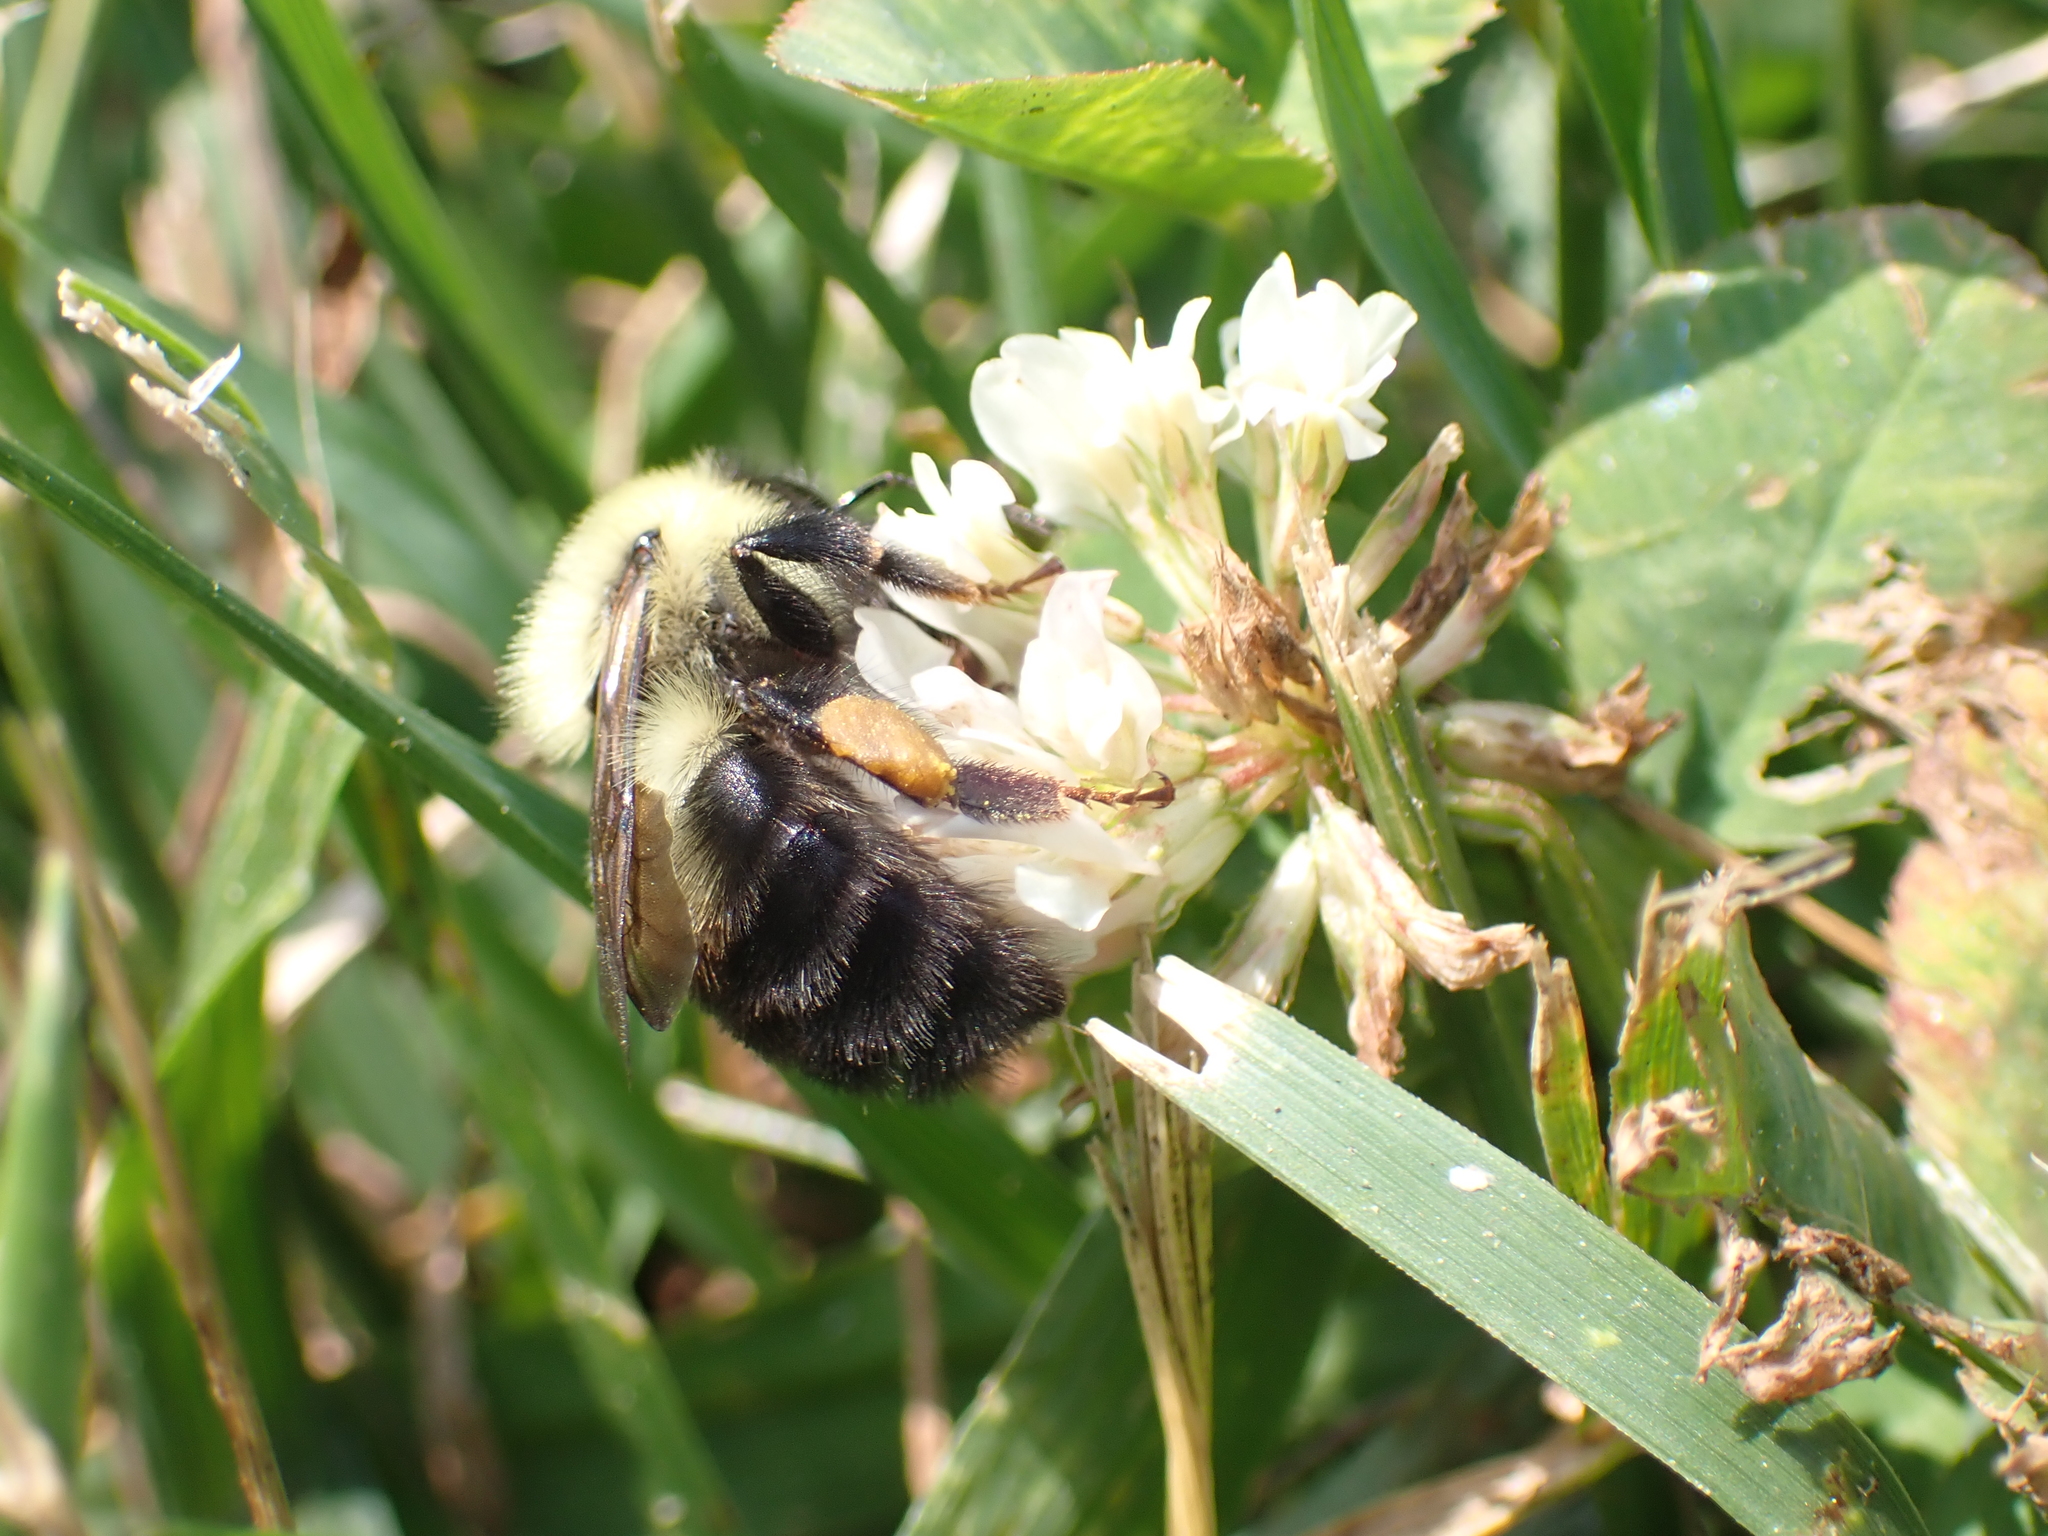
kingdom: Animalia
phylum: Arthropoda
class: Insecta
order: Hymenoptera
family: Apidae
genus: Bombus
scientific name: Bombus bimaculatus
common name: Two-spotted bumble bee
